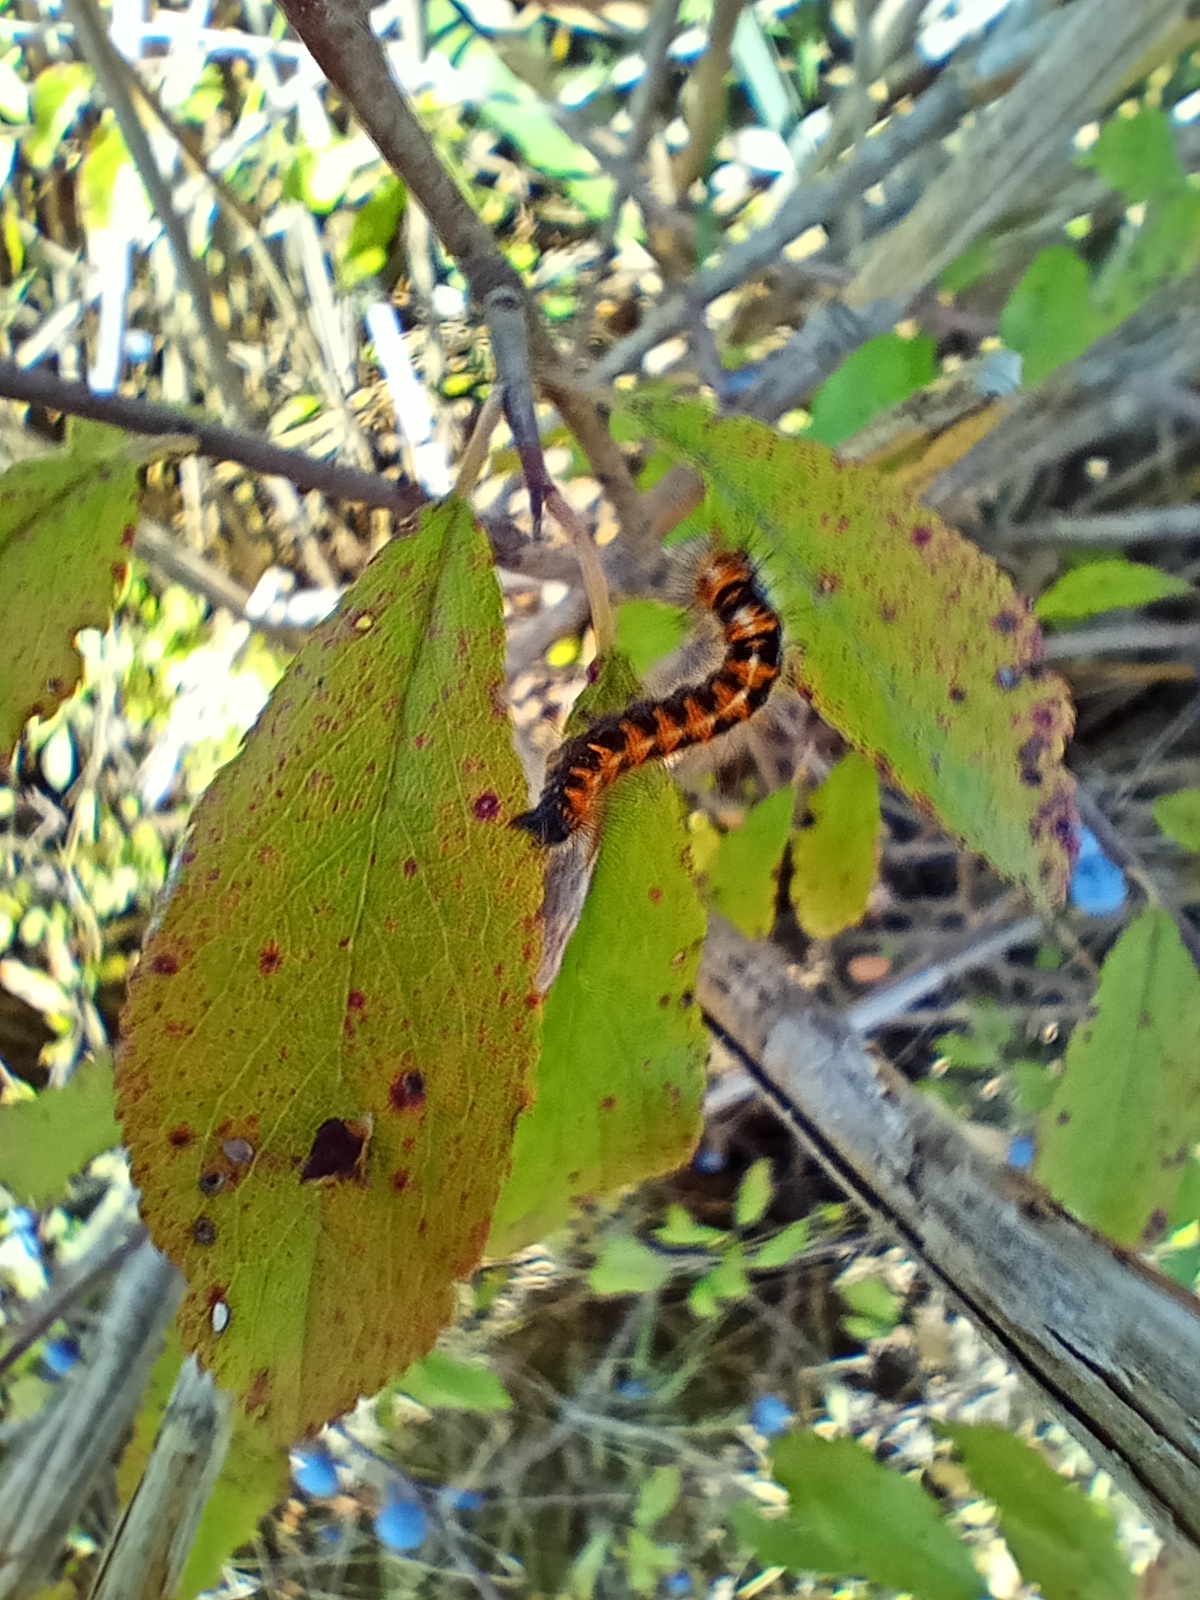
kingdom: Animalia
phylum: Arthropoda
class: Insecta
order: Lepidoptera
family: Lasiocampidae
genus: Lasiocampa
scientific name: Lasiocampa quercus
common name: Oak eggar
